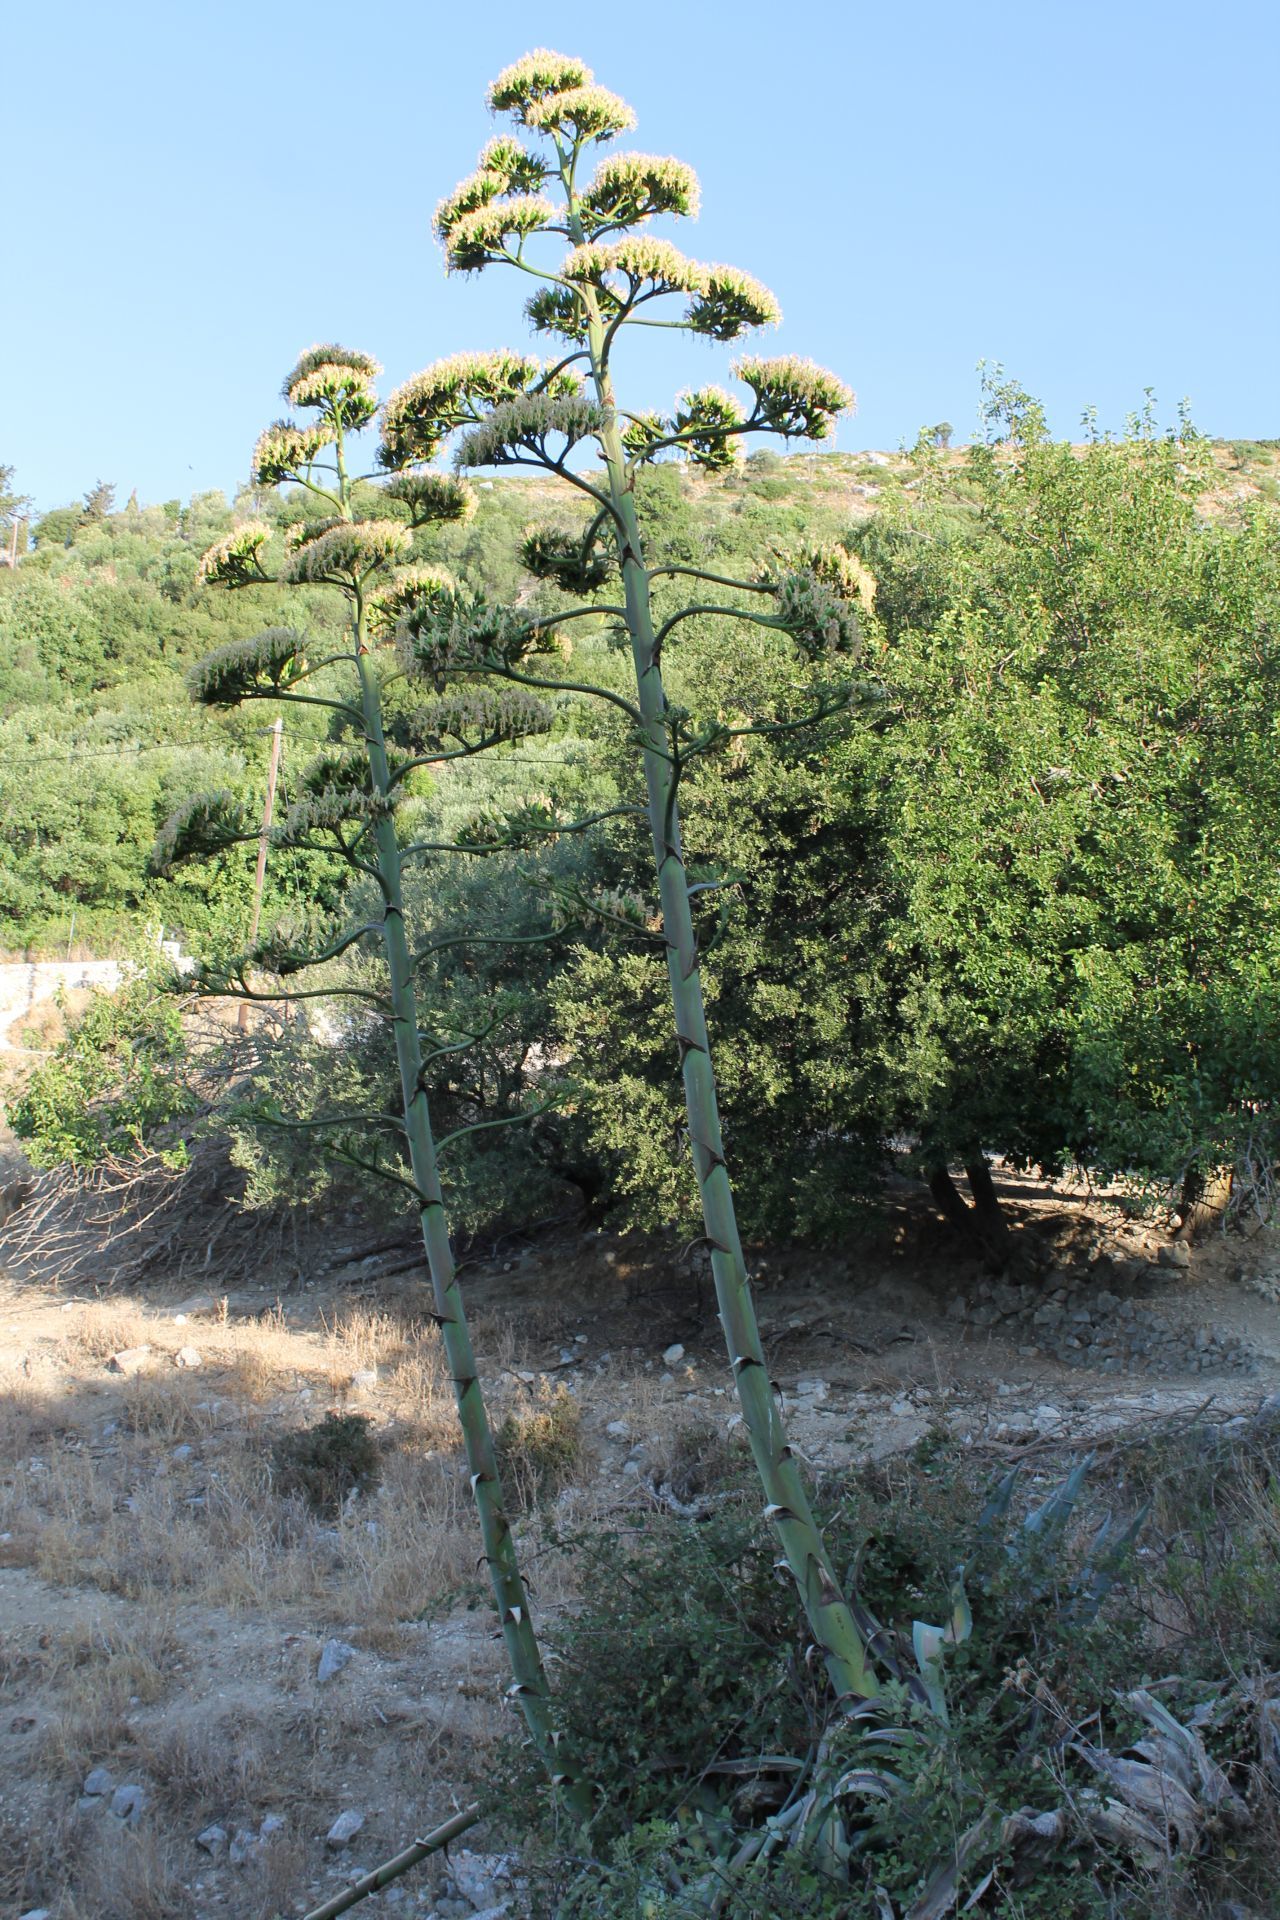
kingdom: Plantae
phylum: Tracheophyta
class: Liliopsida
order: Asparagales
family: Asparagaceae
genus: Agave
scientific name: Agave americana
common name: Centuryplant
